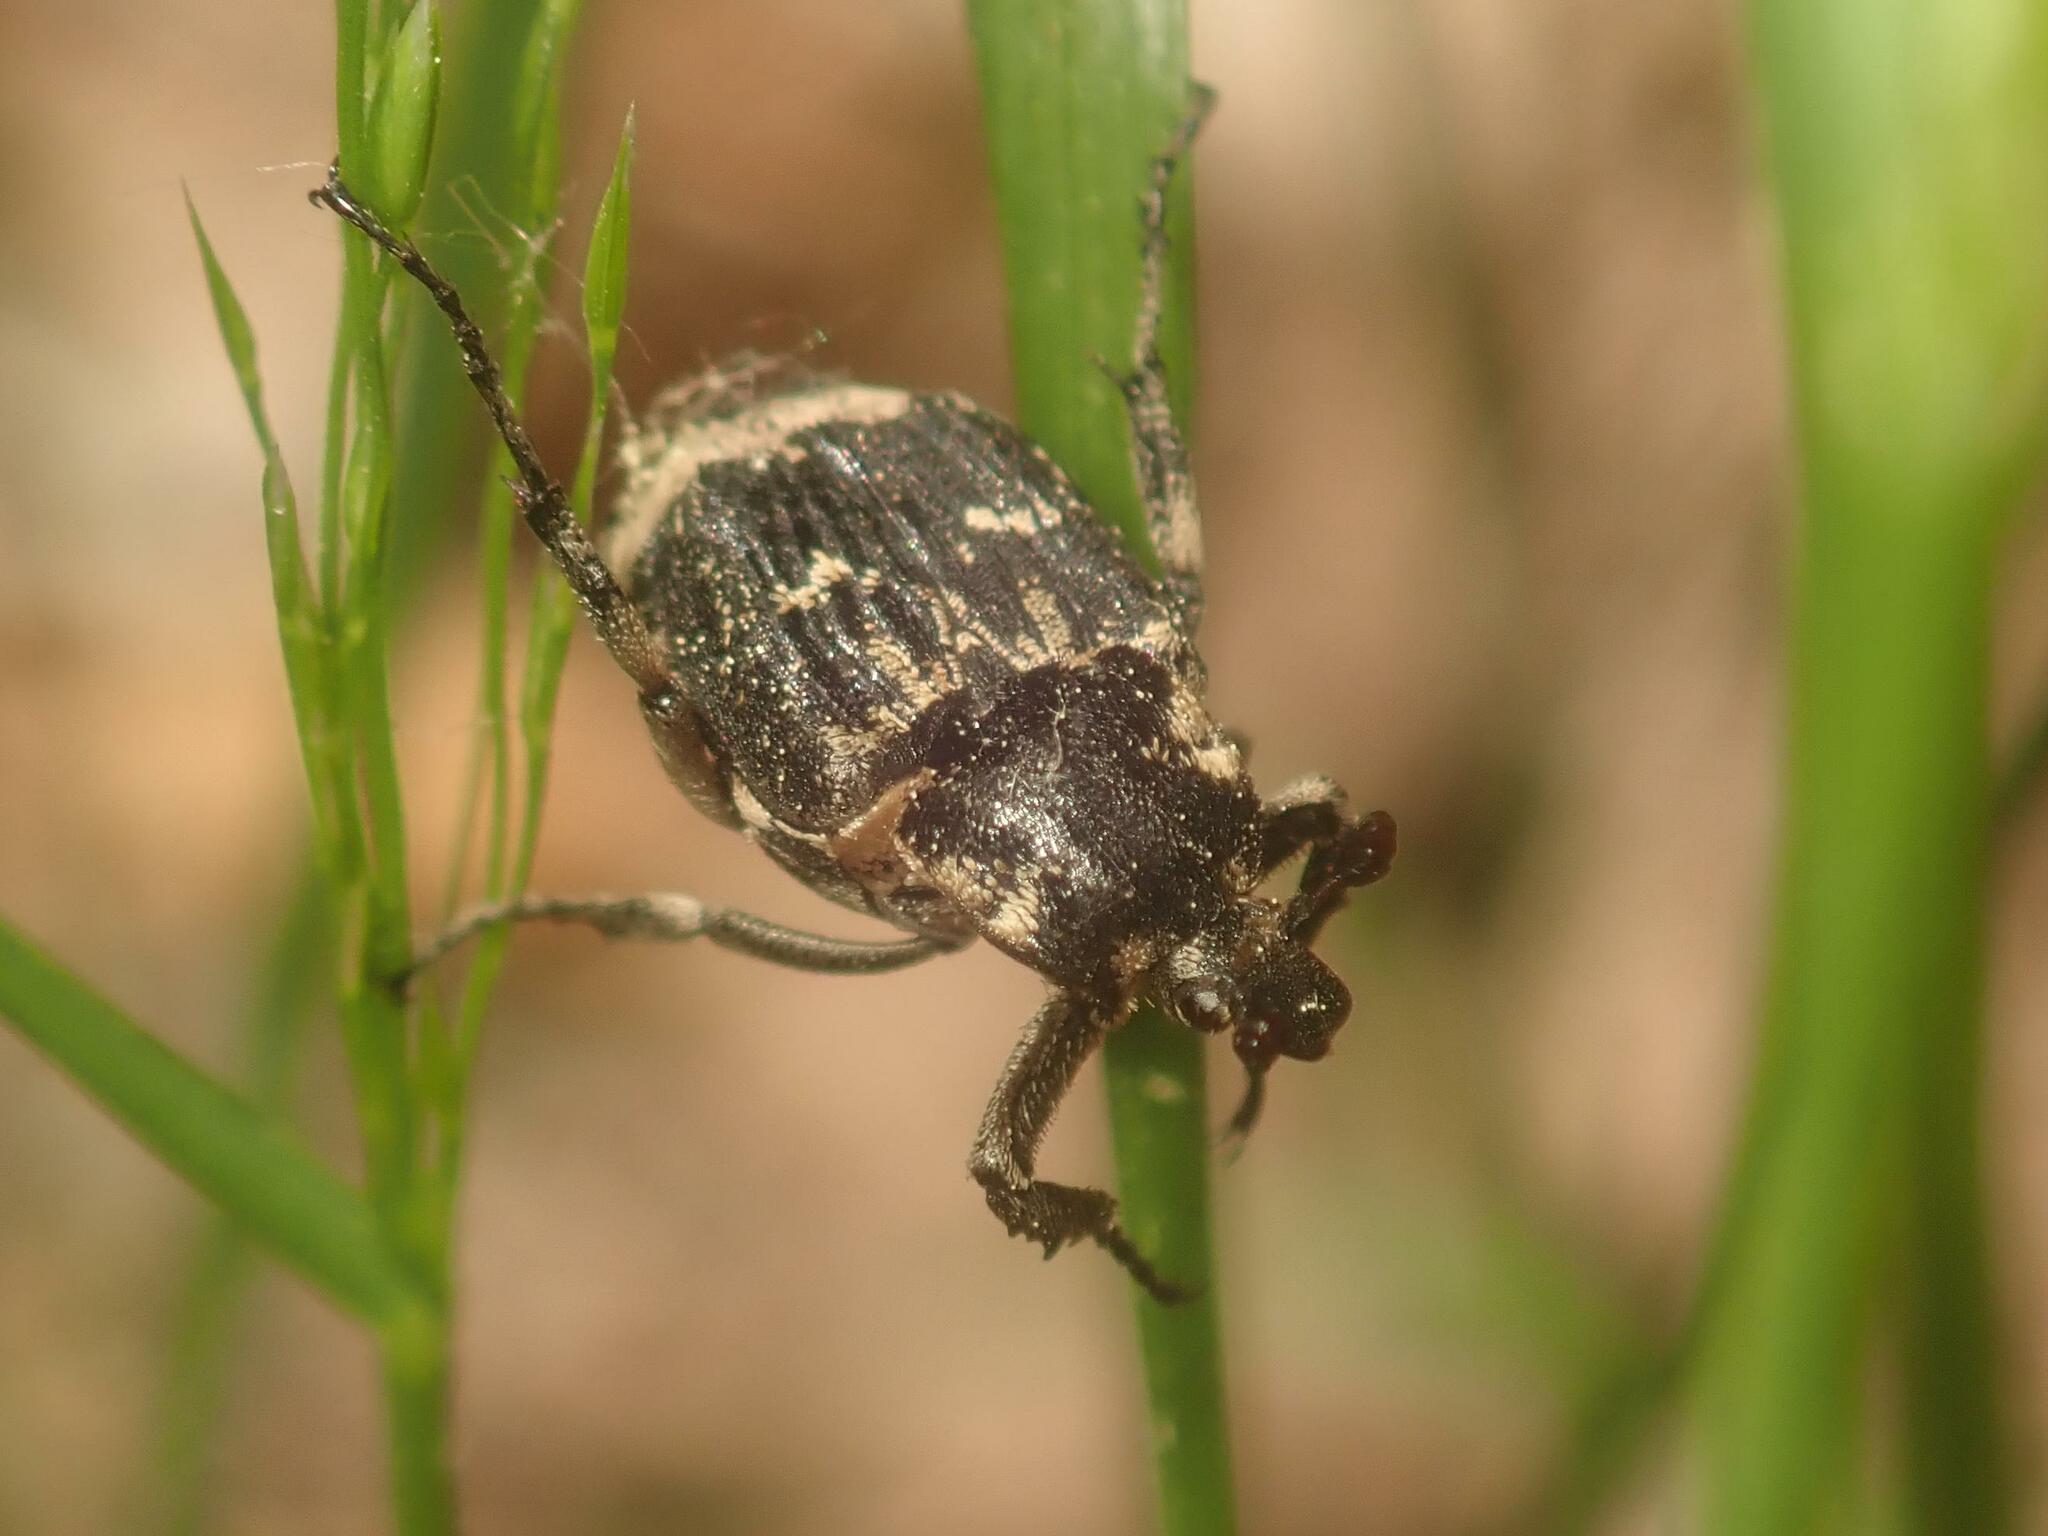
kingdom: Animalia
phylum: Arthropoda
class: Insecta
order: Coleoptera
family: Scarabaeidae
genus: Valgus
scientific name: Valgus hemipterus
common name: Bug flower chafer
